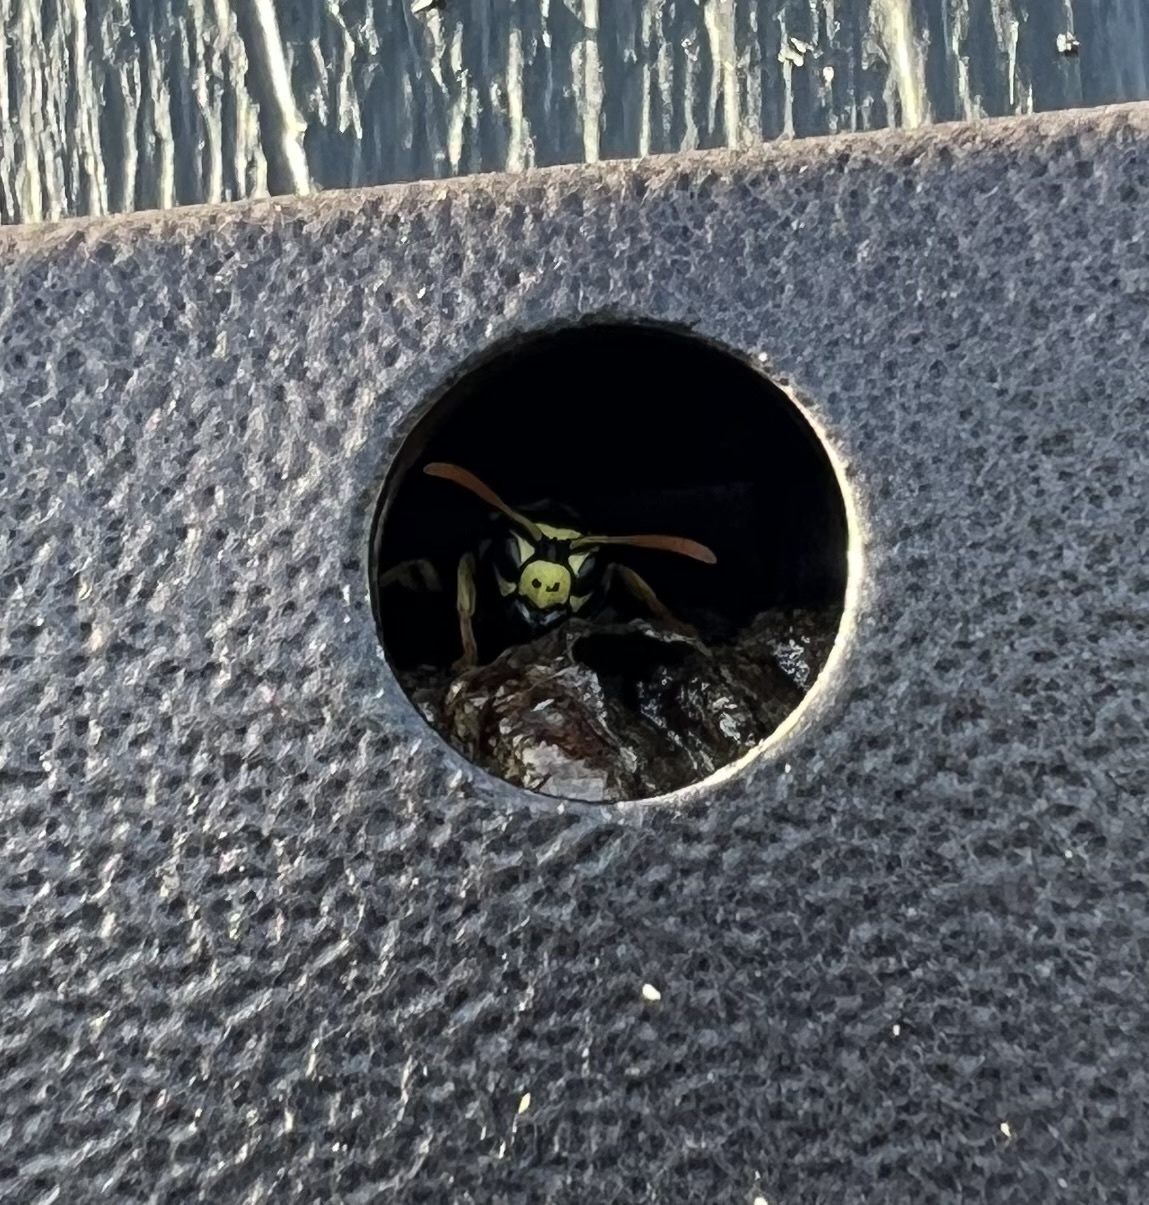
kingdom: Animalia
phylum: Arthropoda
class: Insecta
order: Hymenoptera
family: Eumenidae
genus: Polistes
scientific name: Polistes dominula
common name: Paper wasp
